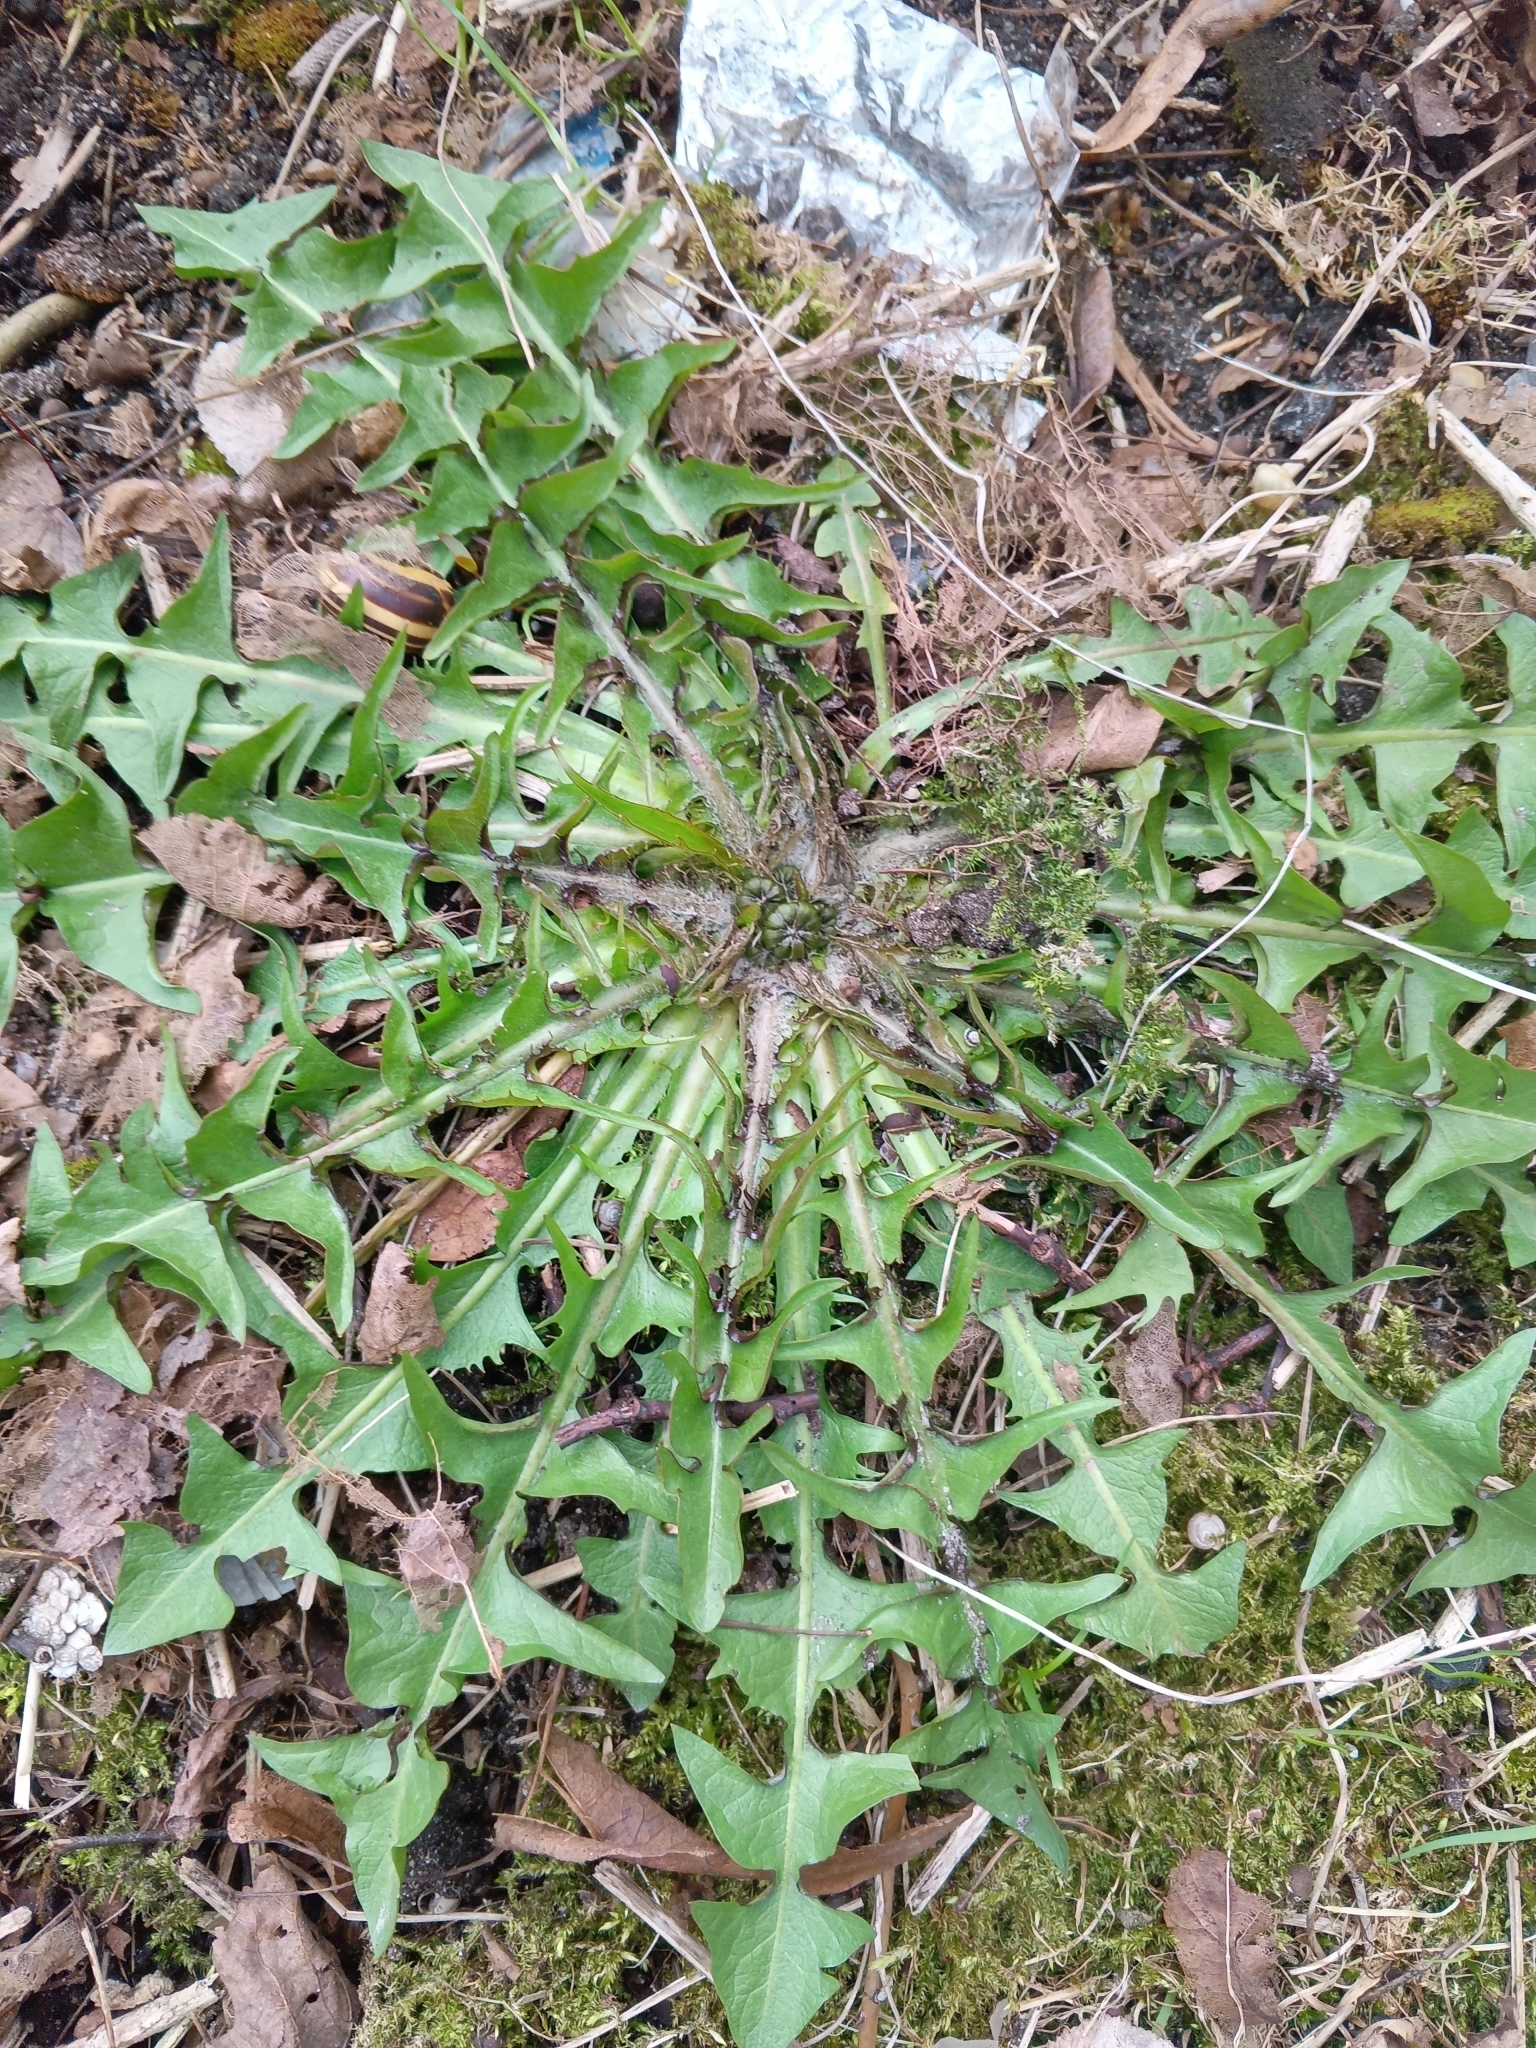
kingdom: Plantae
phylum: Tracheophyta
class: Magnoliopsida
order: Asterales
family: Asteraceae
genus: Taraxacum
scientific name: Taraxacum officinale
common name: Common dandelion
